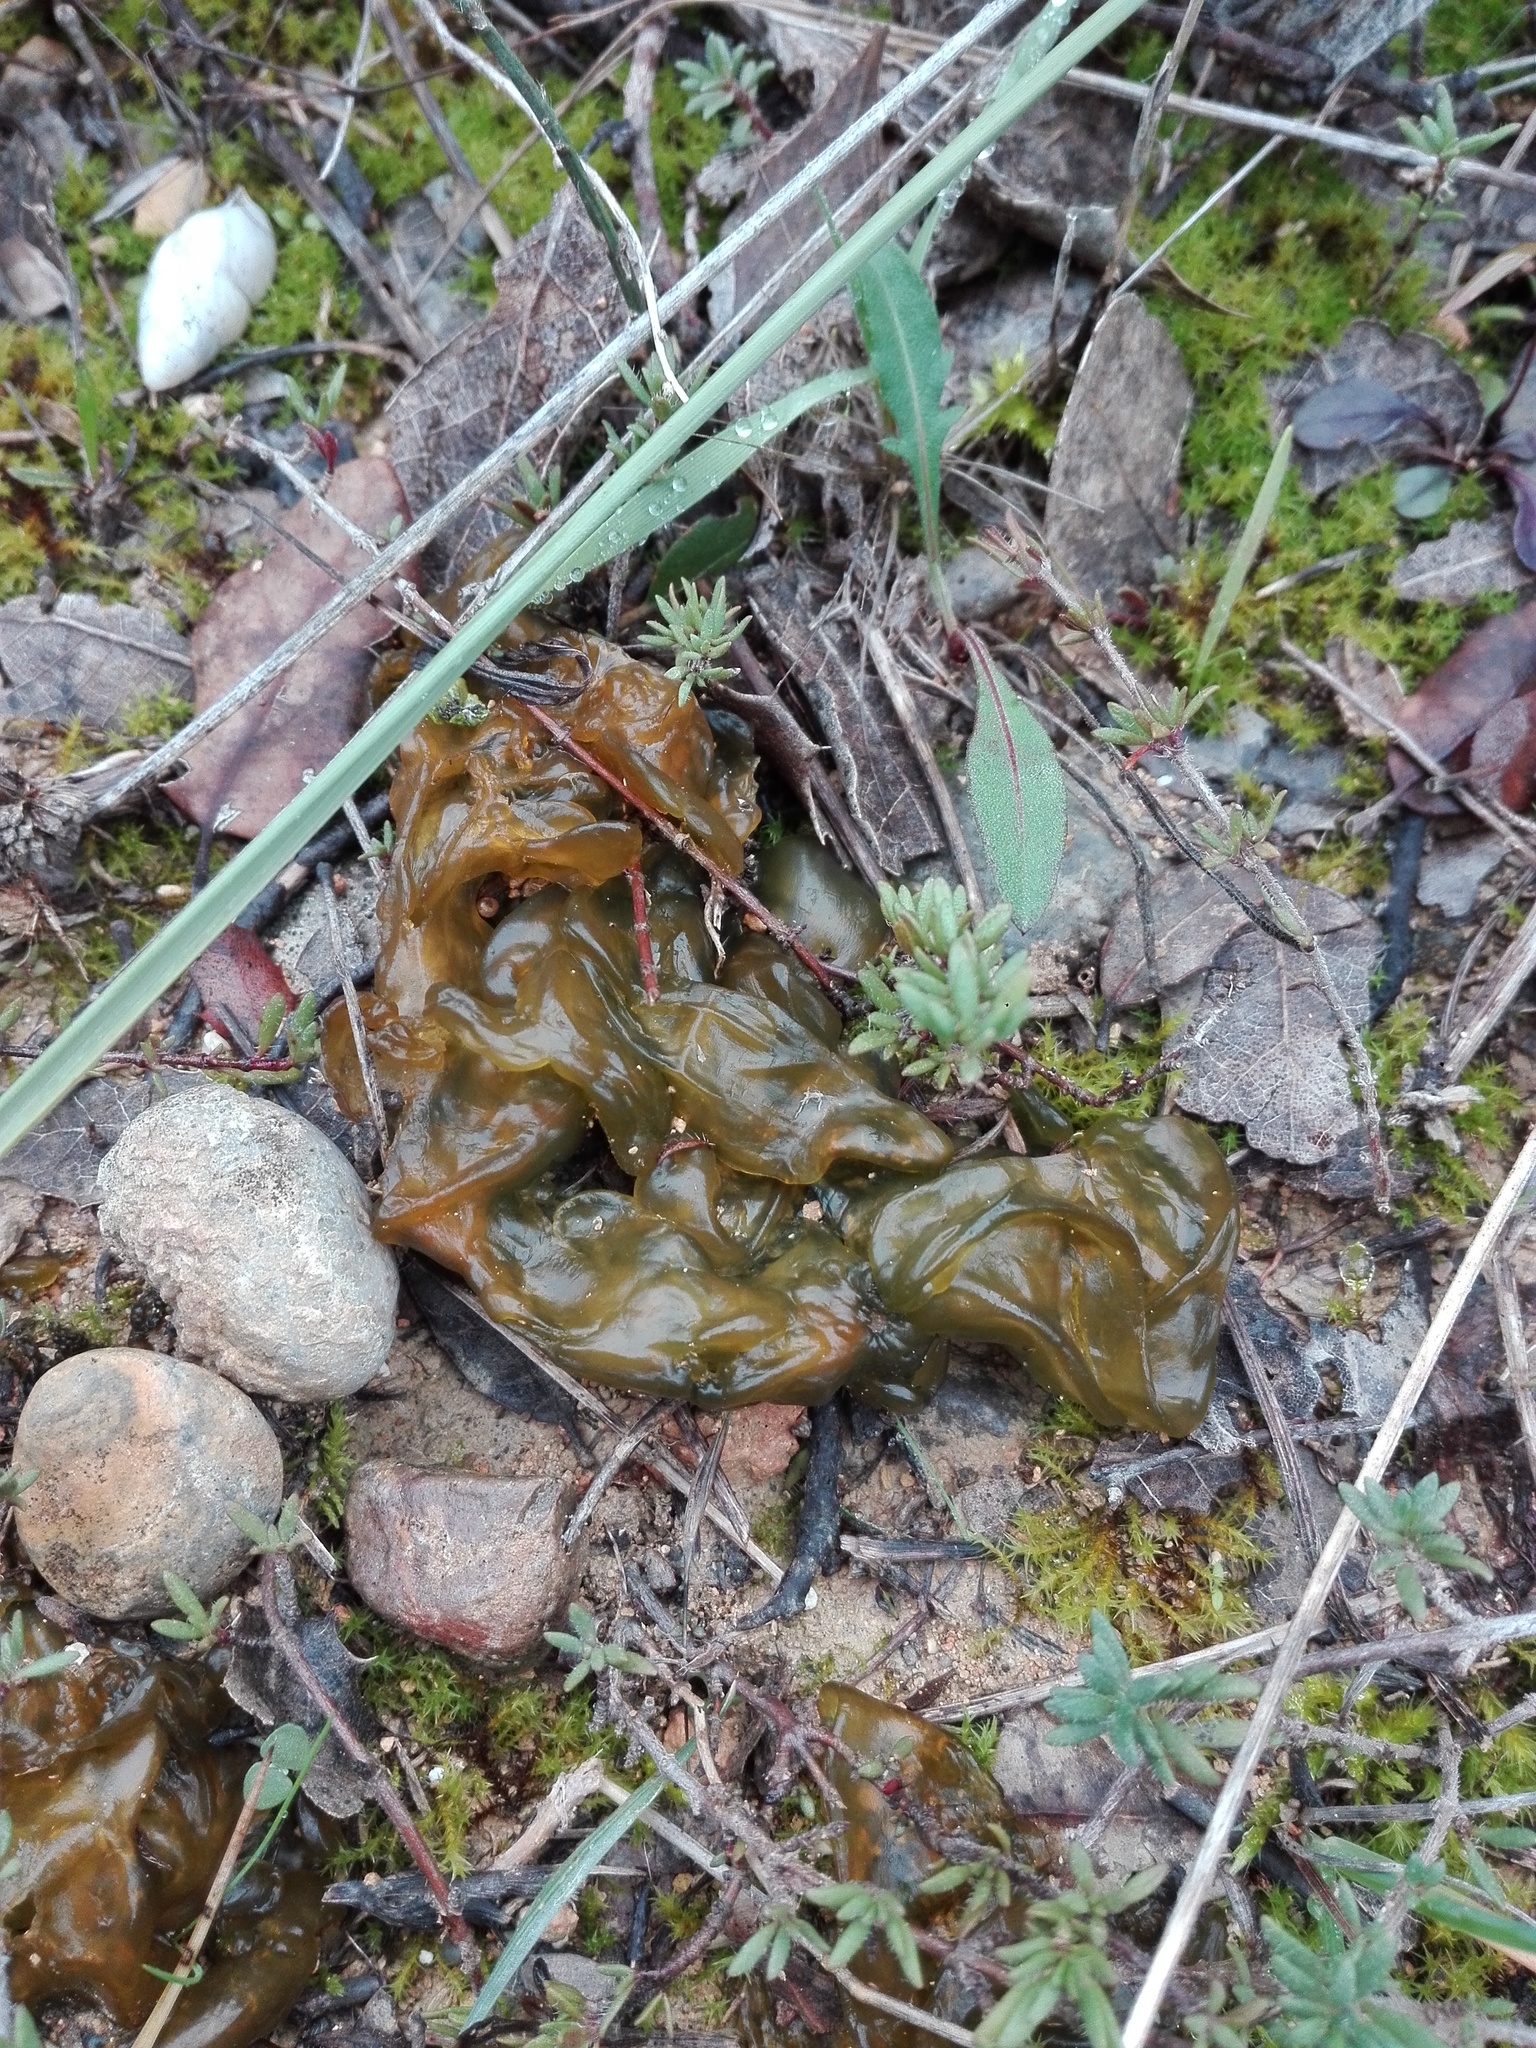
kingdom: Bacteria
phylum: Cyanobacteria
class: Cyanobacteriia
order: Cyanobacteriales
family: Nostocaceae
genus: Nostoc
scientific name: Nostoc commune
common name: Star jelly
